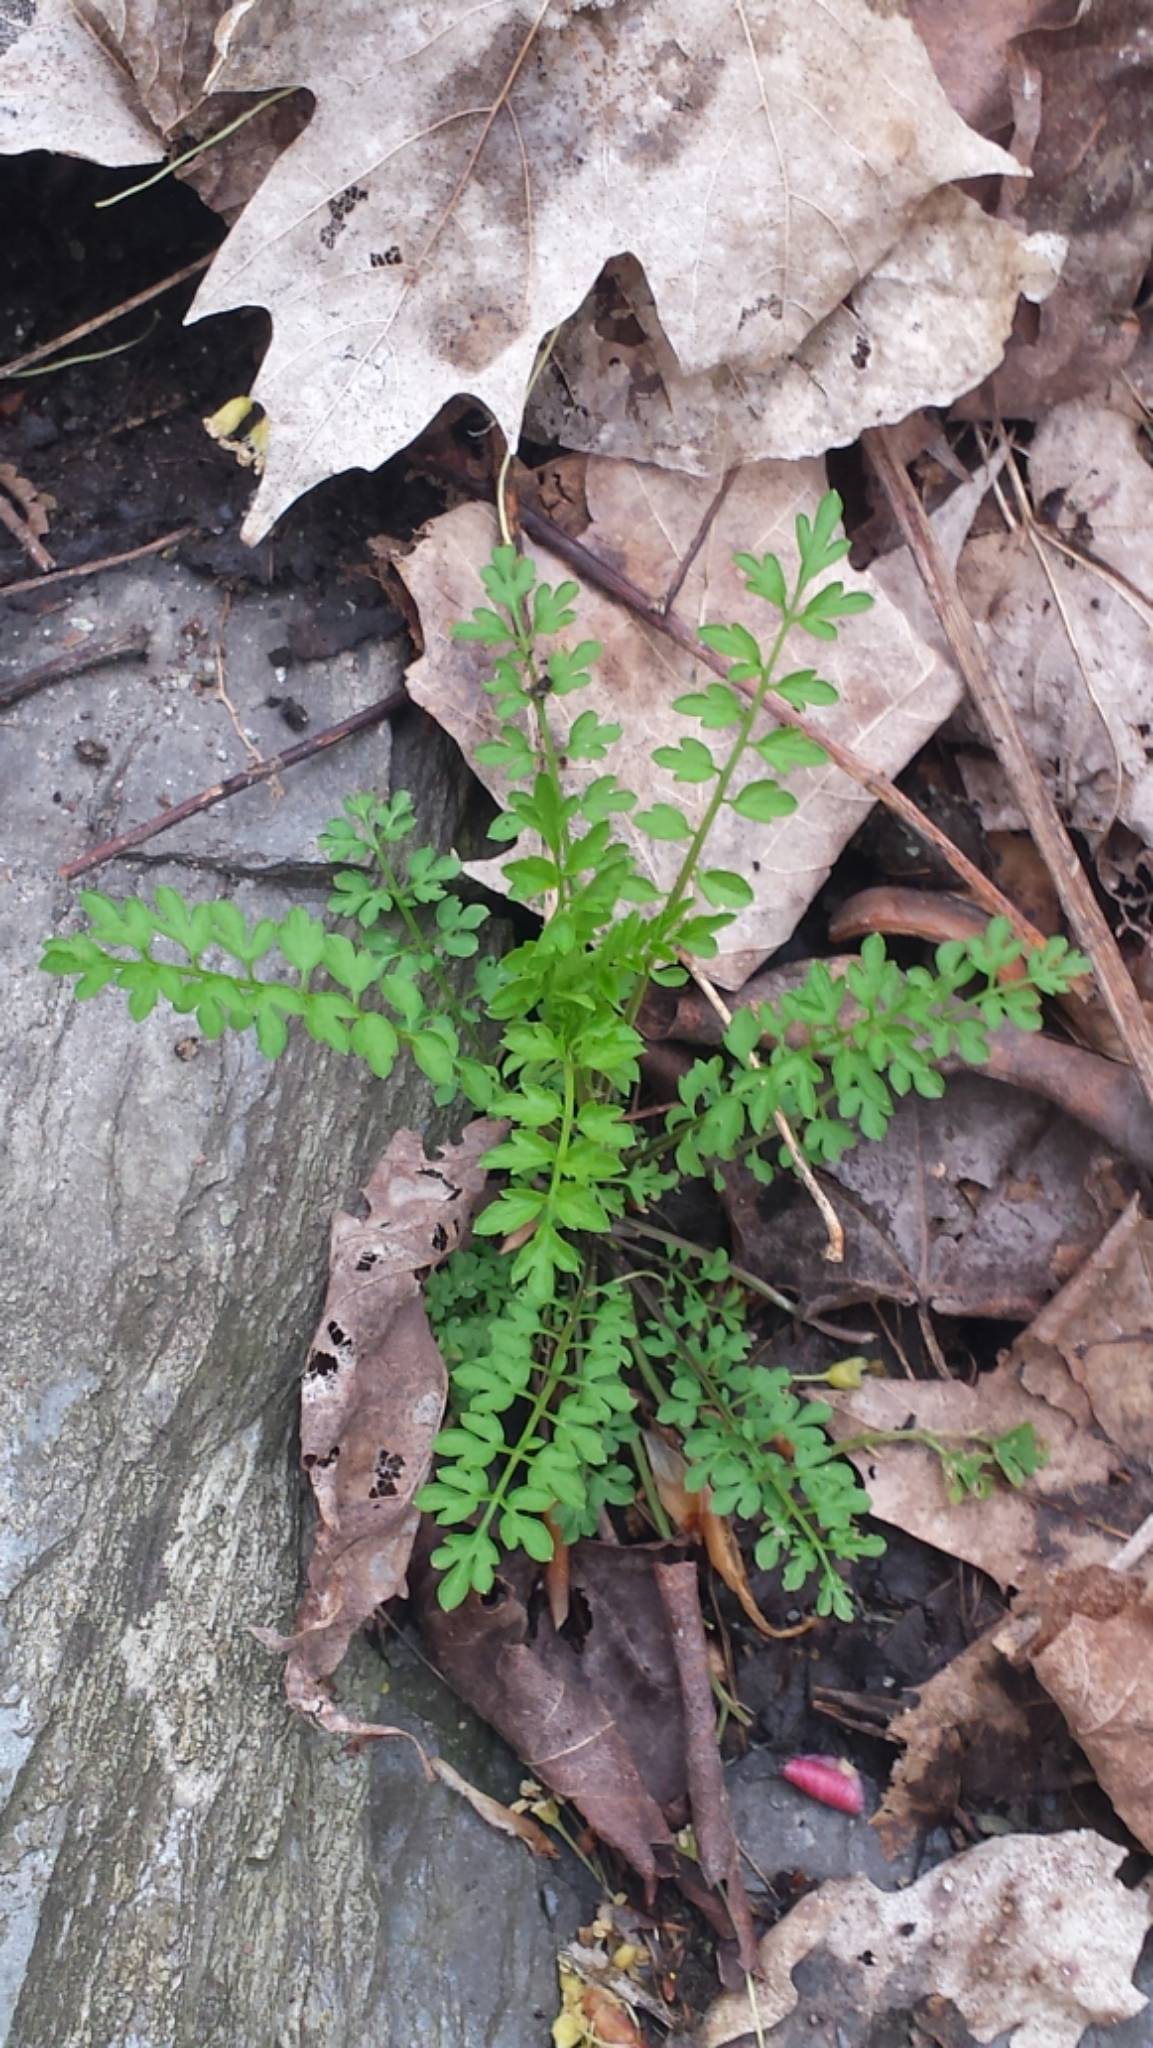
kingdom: Plantae
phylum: Tracheophyta
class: Magnoliopsida
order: Brassicales
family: Brassicaceae
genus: Cardamine
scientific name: Cardamine impatiens
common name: Narrow-leaved bitter-cress
